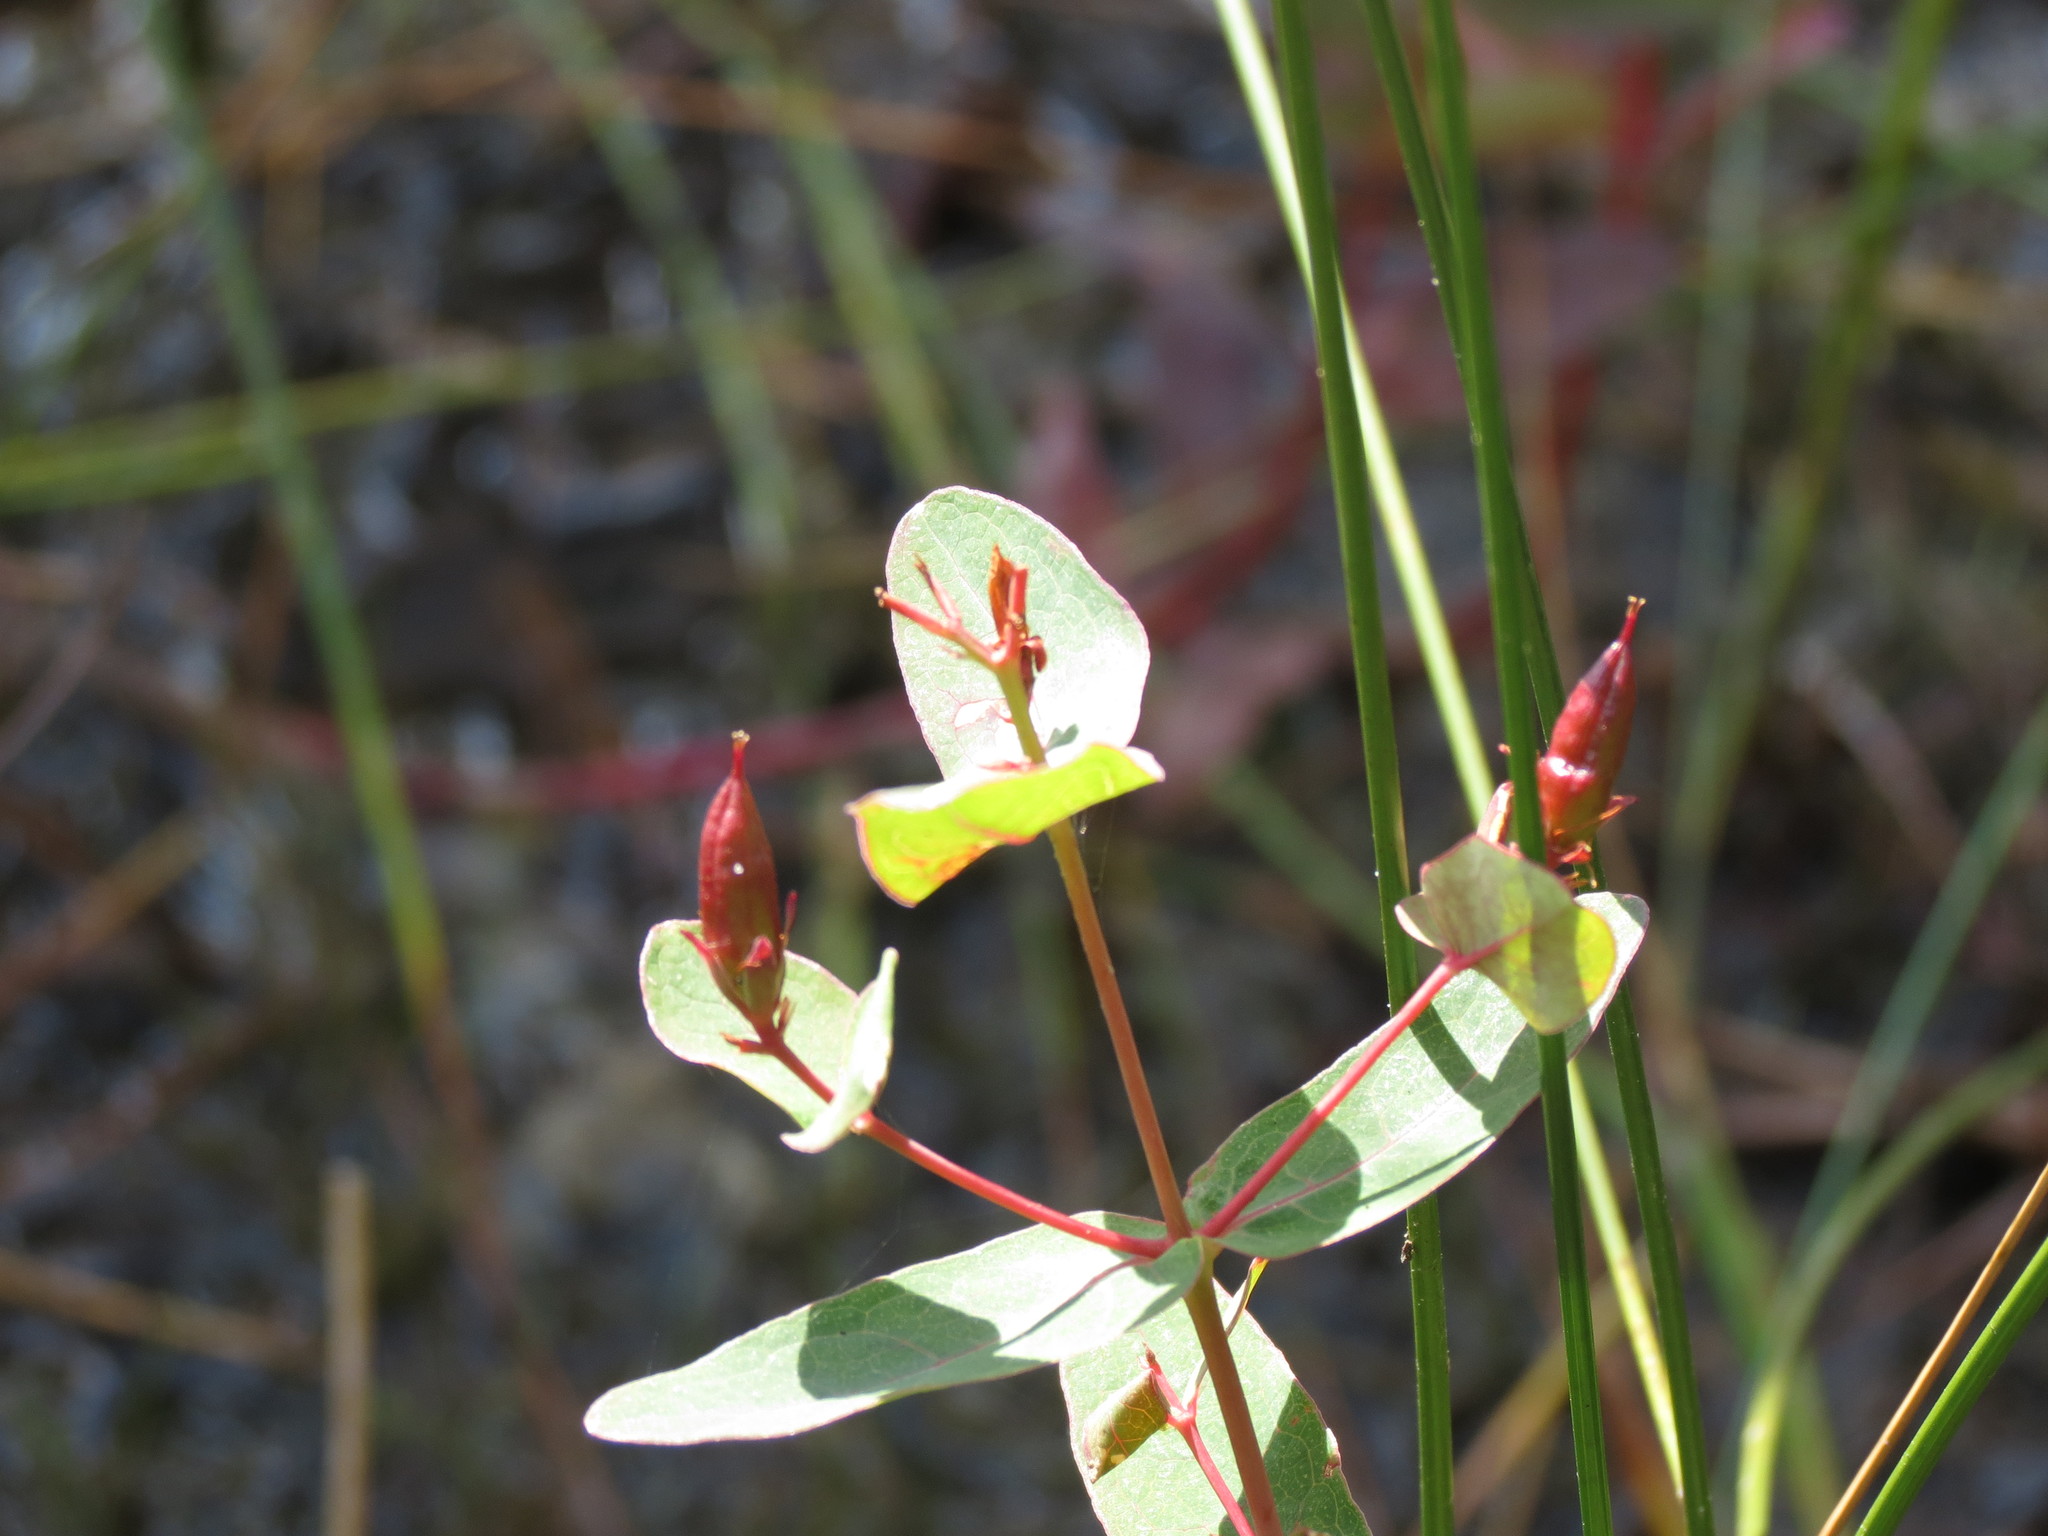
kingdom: Plantae
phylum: Tracheophyta
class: Magnoliopsida
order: Malpighiales
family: Hypericaceae
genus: Triadenum
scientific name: Triadenum virginicum
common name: Marsh st. john's-wort
